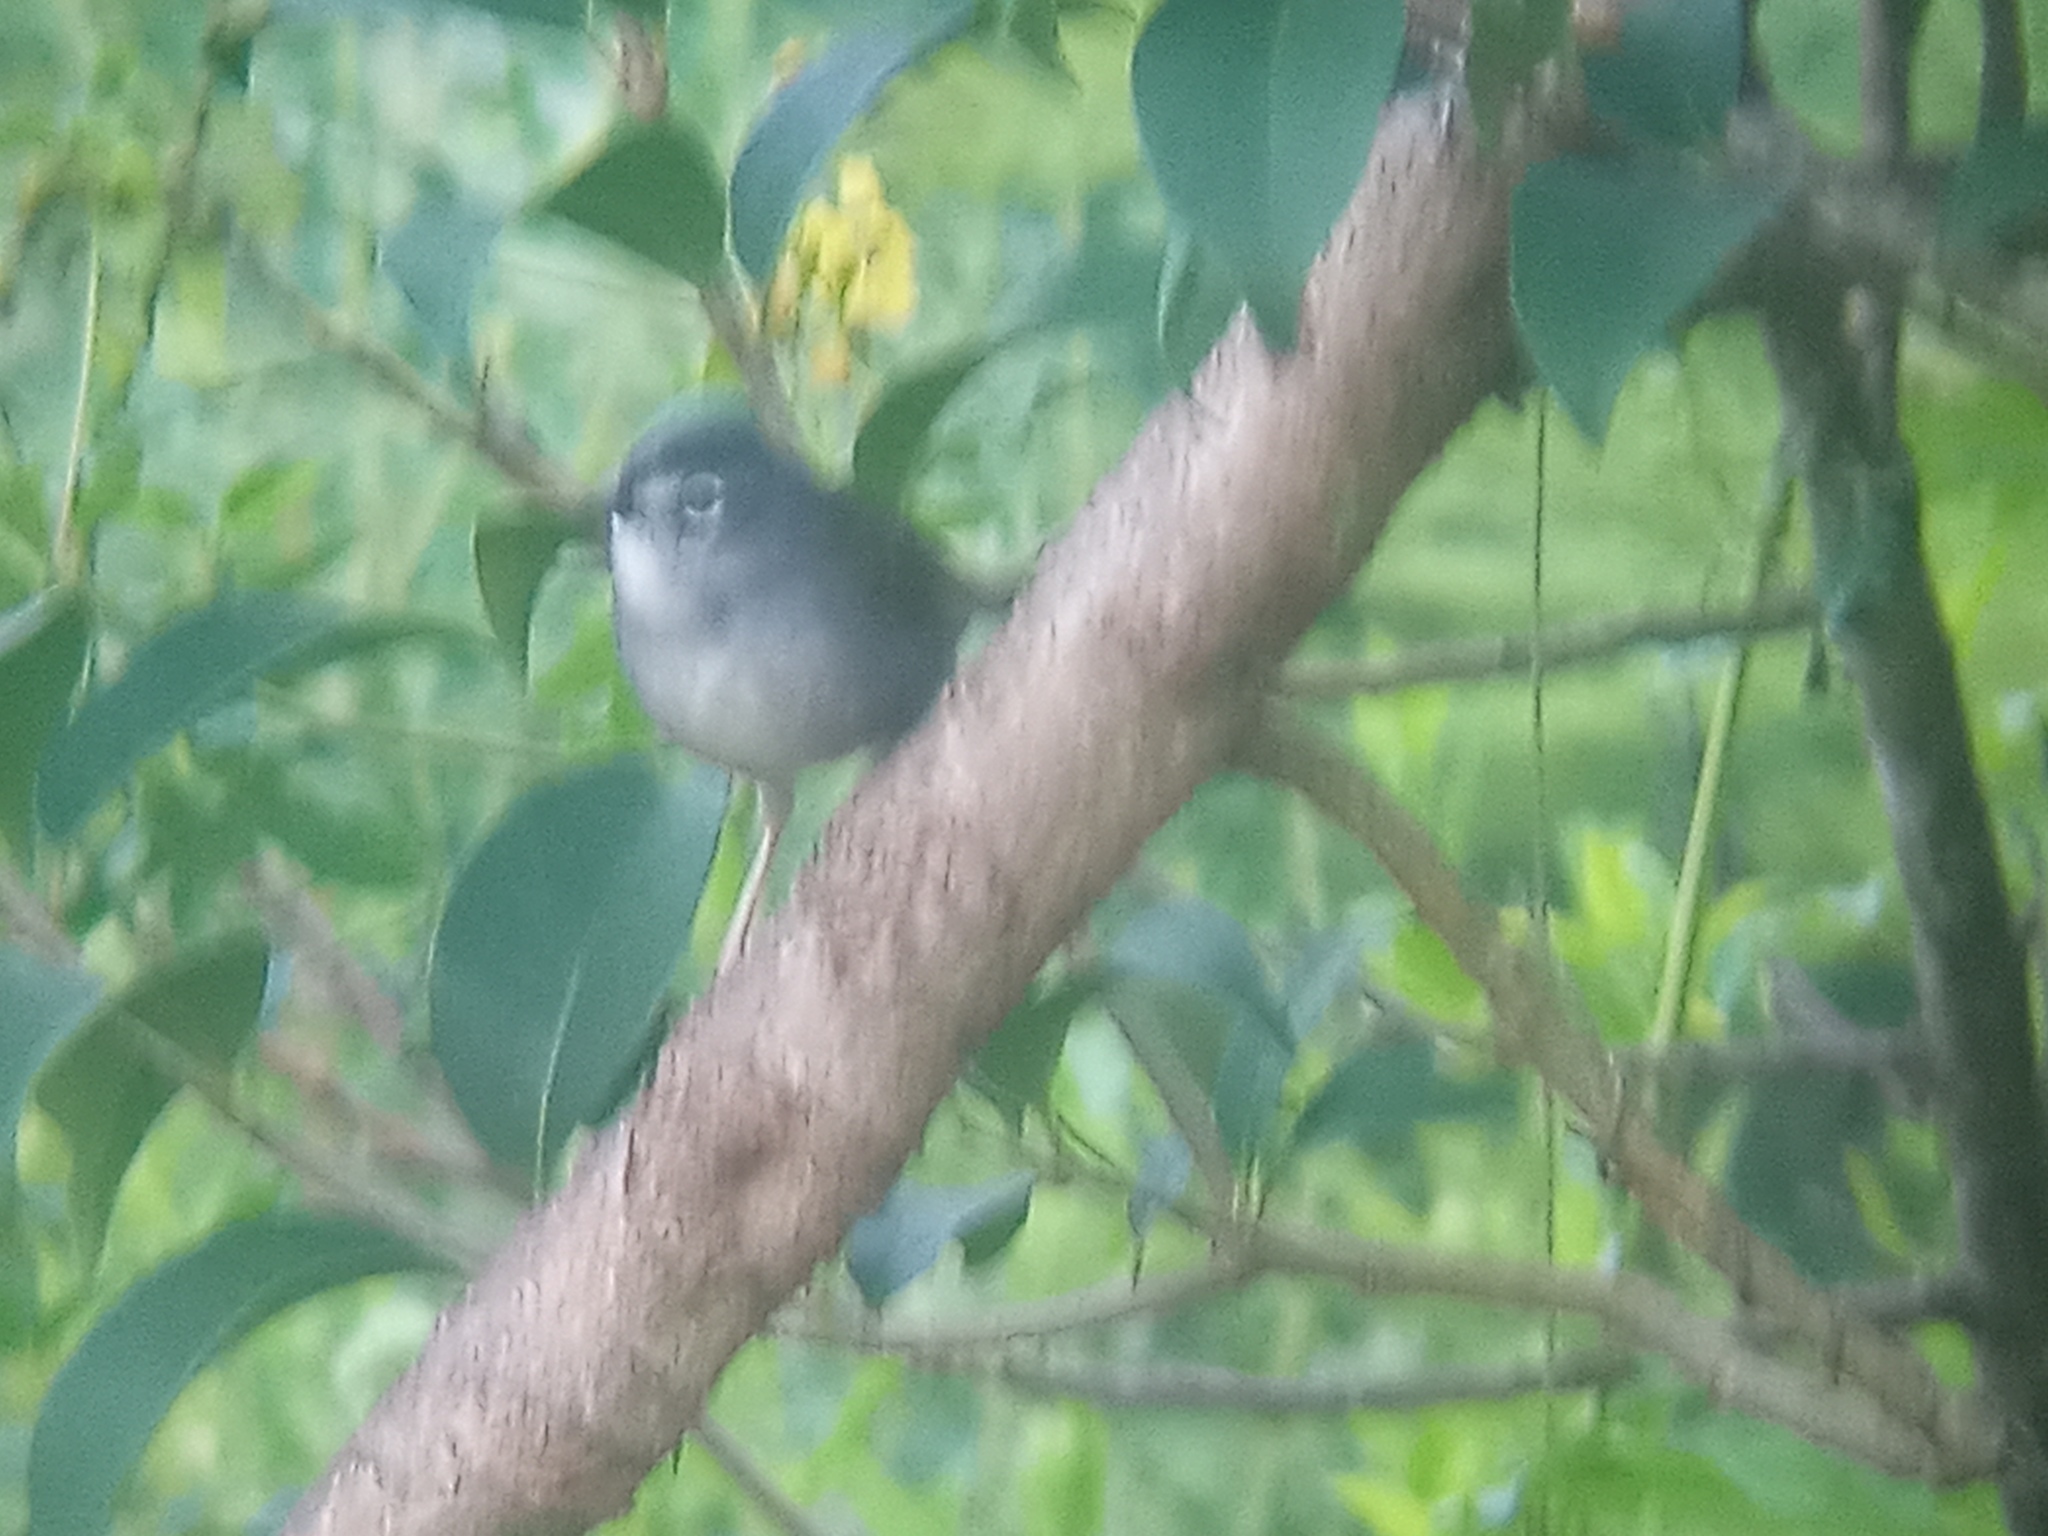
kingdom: Animalia
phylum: Chordata
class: Aves
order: Passeriformes
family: Parulidae
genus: Myiothlypis
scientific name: Myiothlypis leucoblephara
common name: White-rimmed warbler
